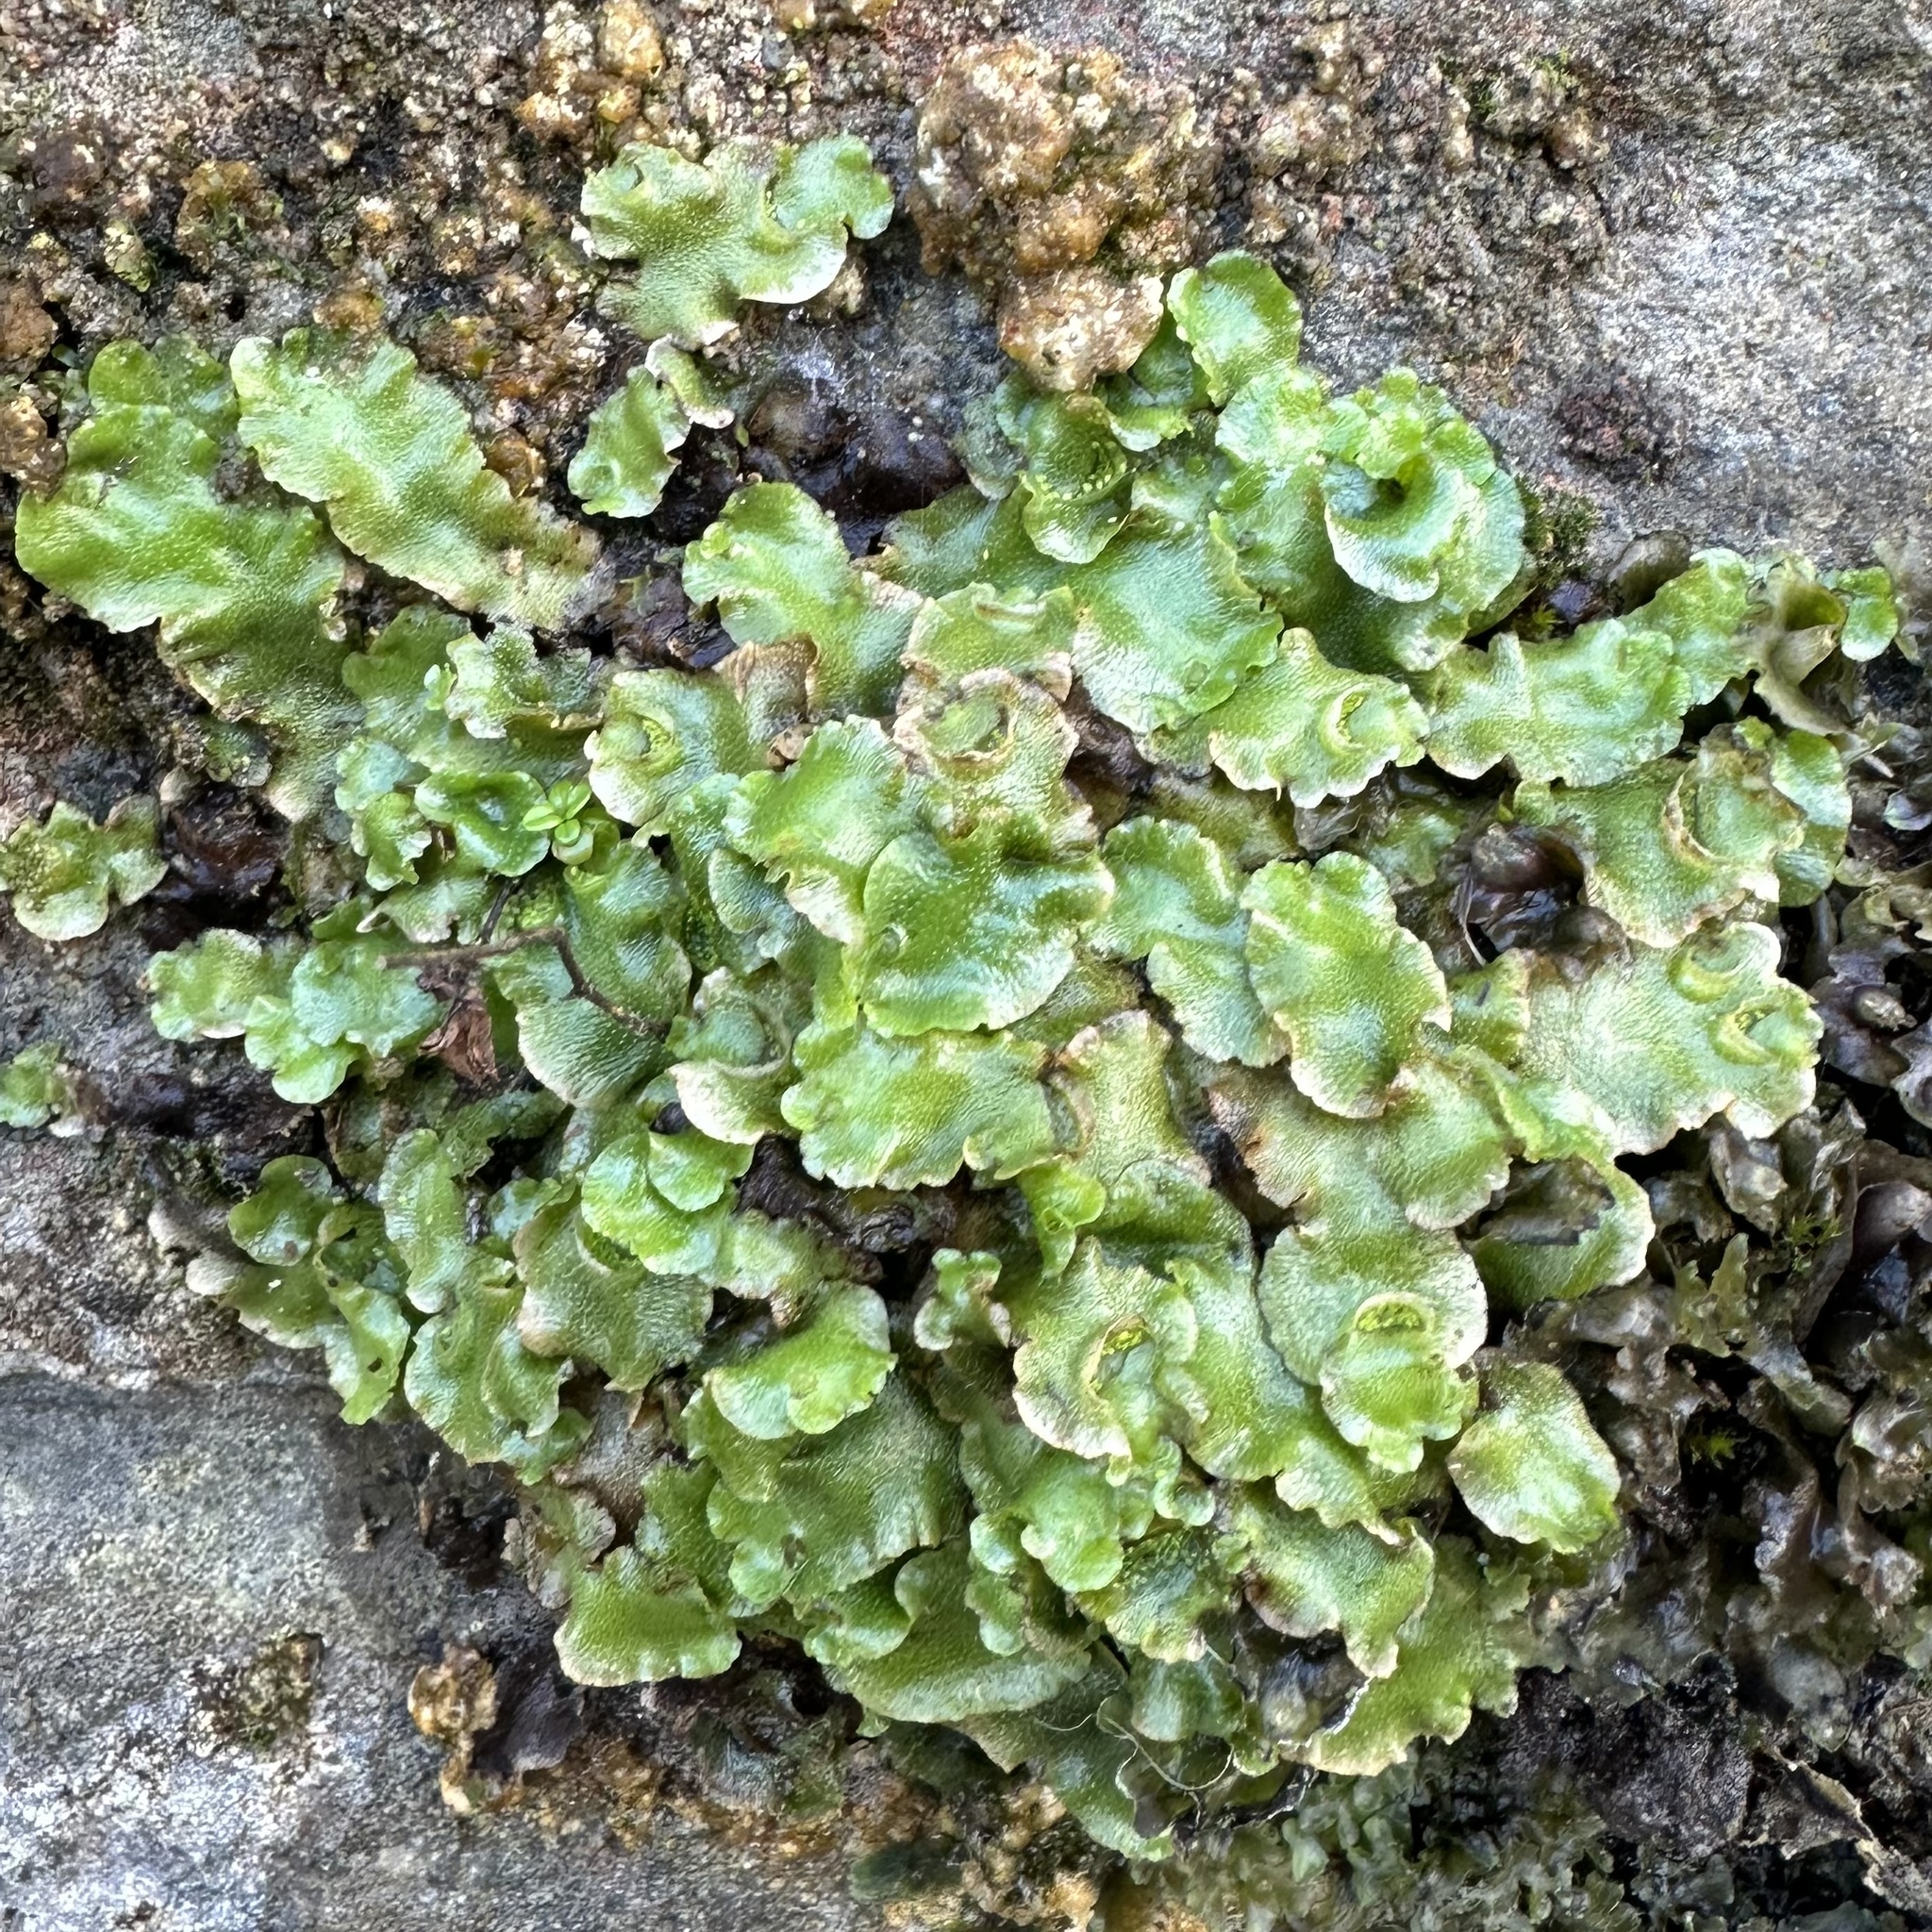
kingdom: Plantae
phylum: Marchantiophyta
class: Marchantiopsida
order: Lunulariales
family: Lunulariaceae
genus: Lunularia
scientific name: Lunularia cruciata
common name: Crescent-cup liverwort
